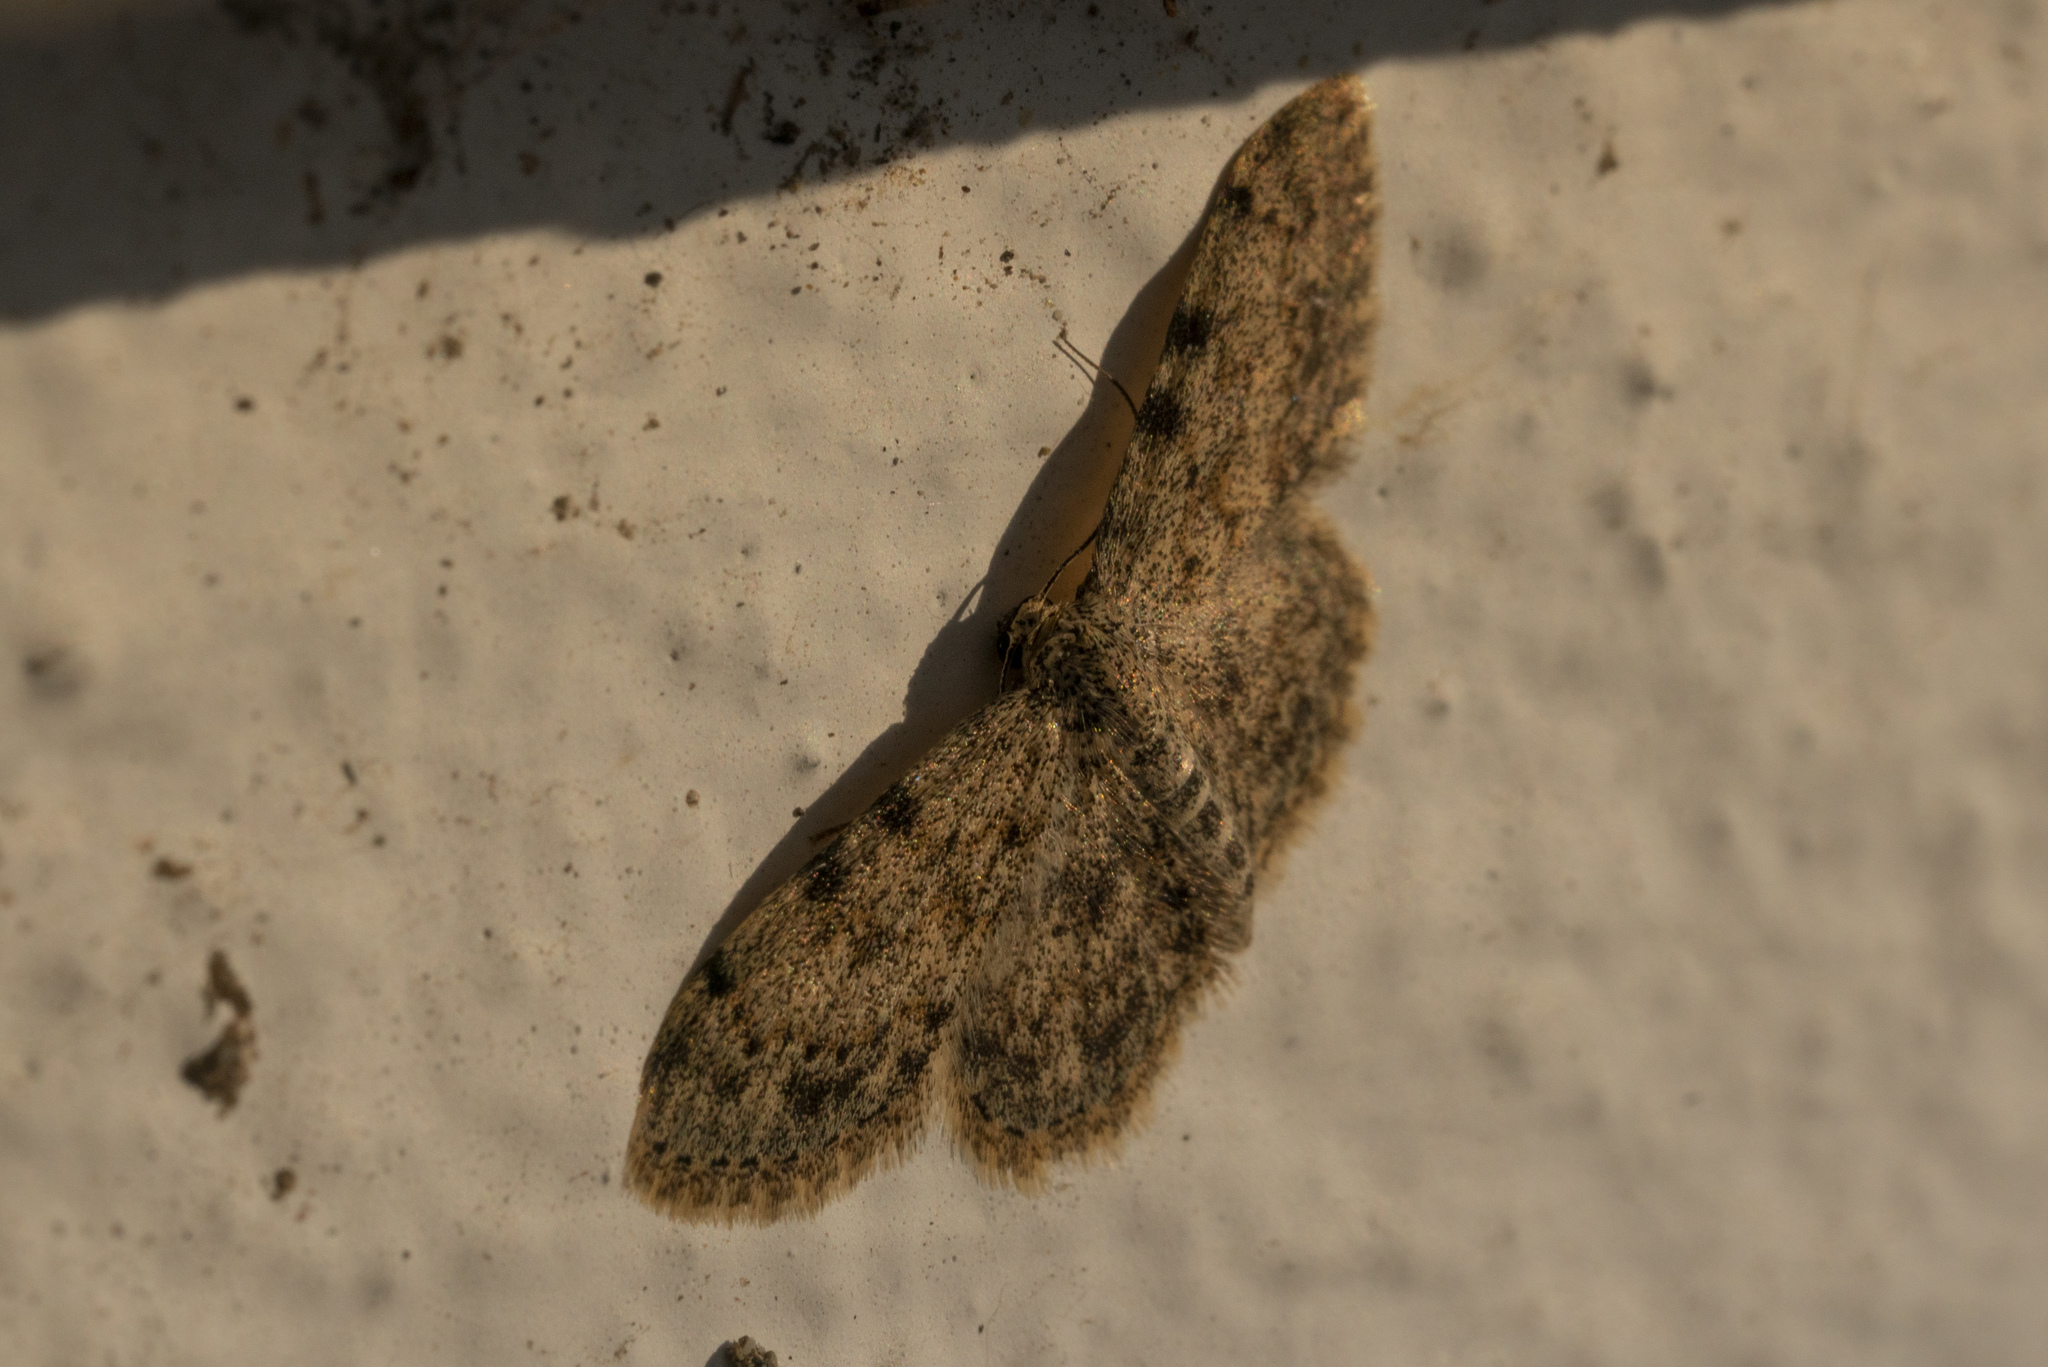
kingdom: Animalia
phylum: Arthropoda
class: Insecta
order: Lepidoptera
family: Geometridae
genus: Scopula
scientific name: Scopula luridata
